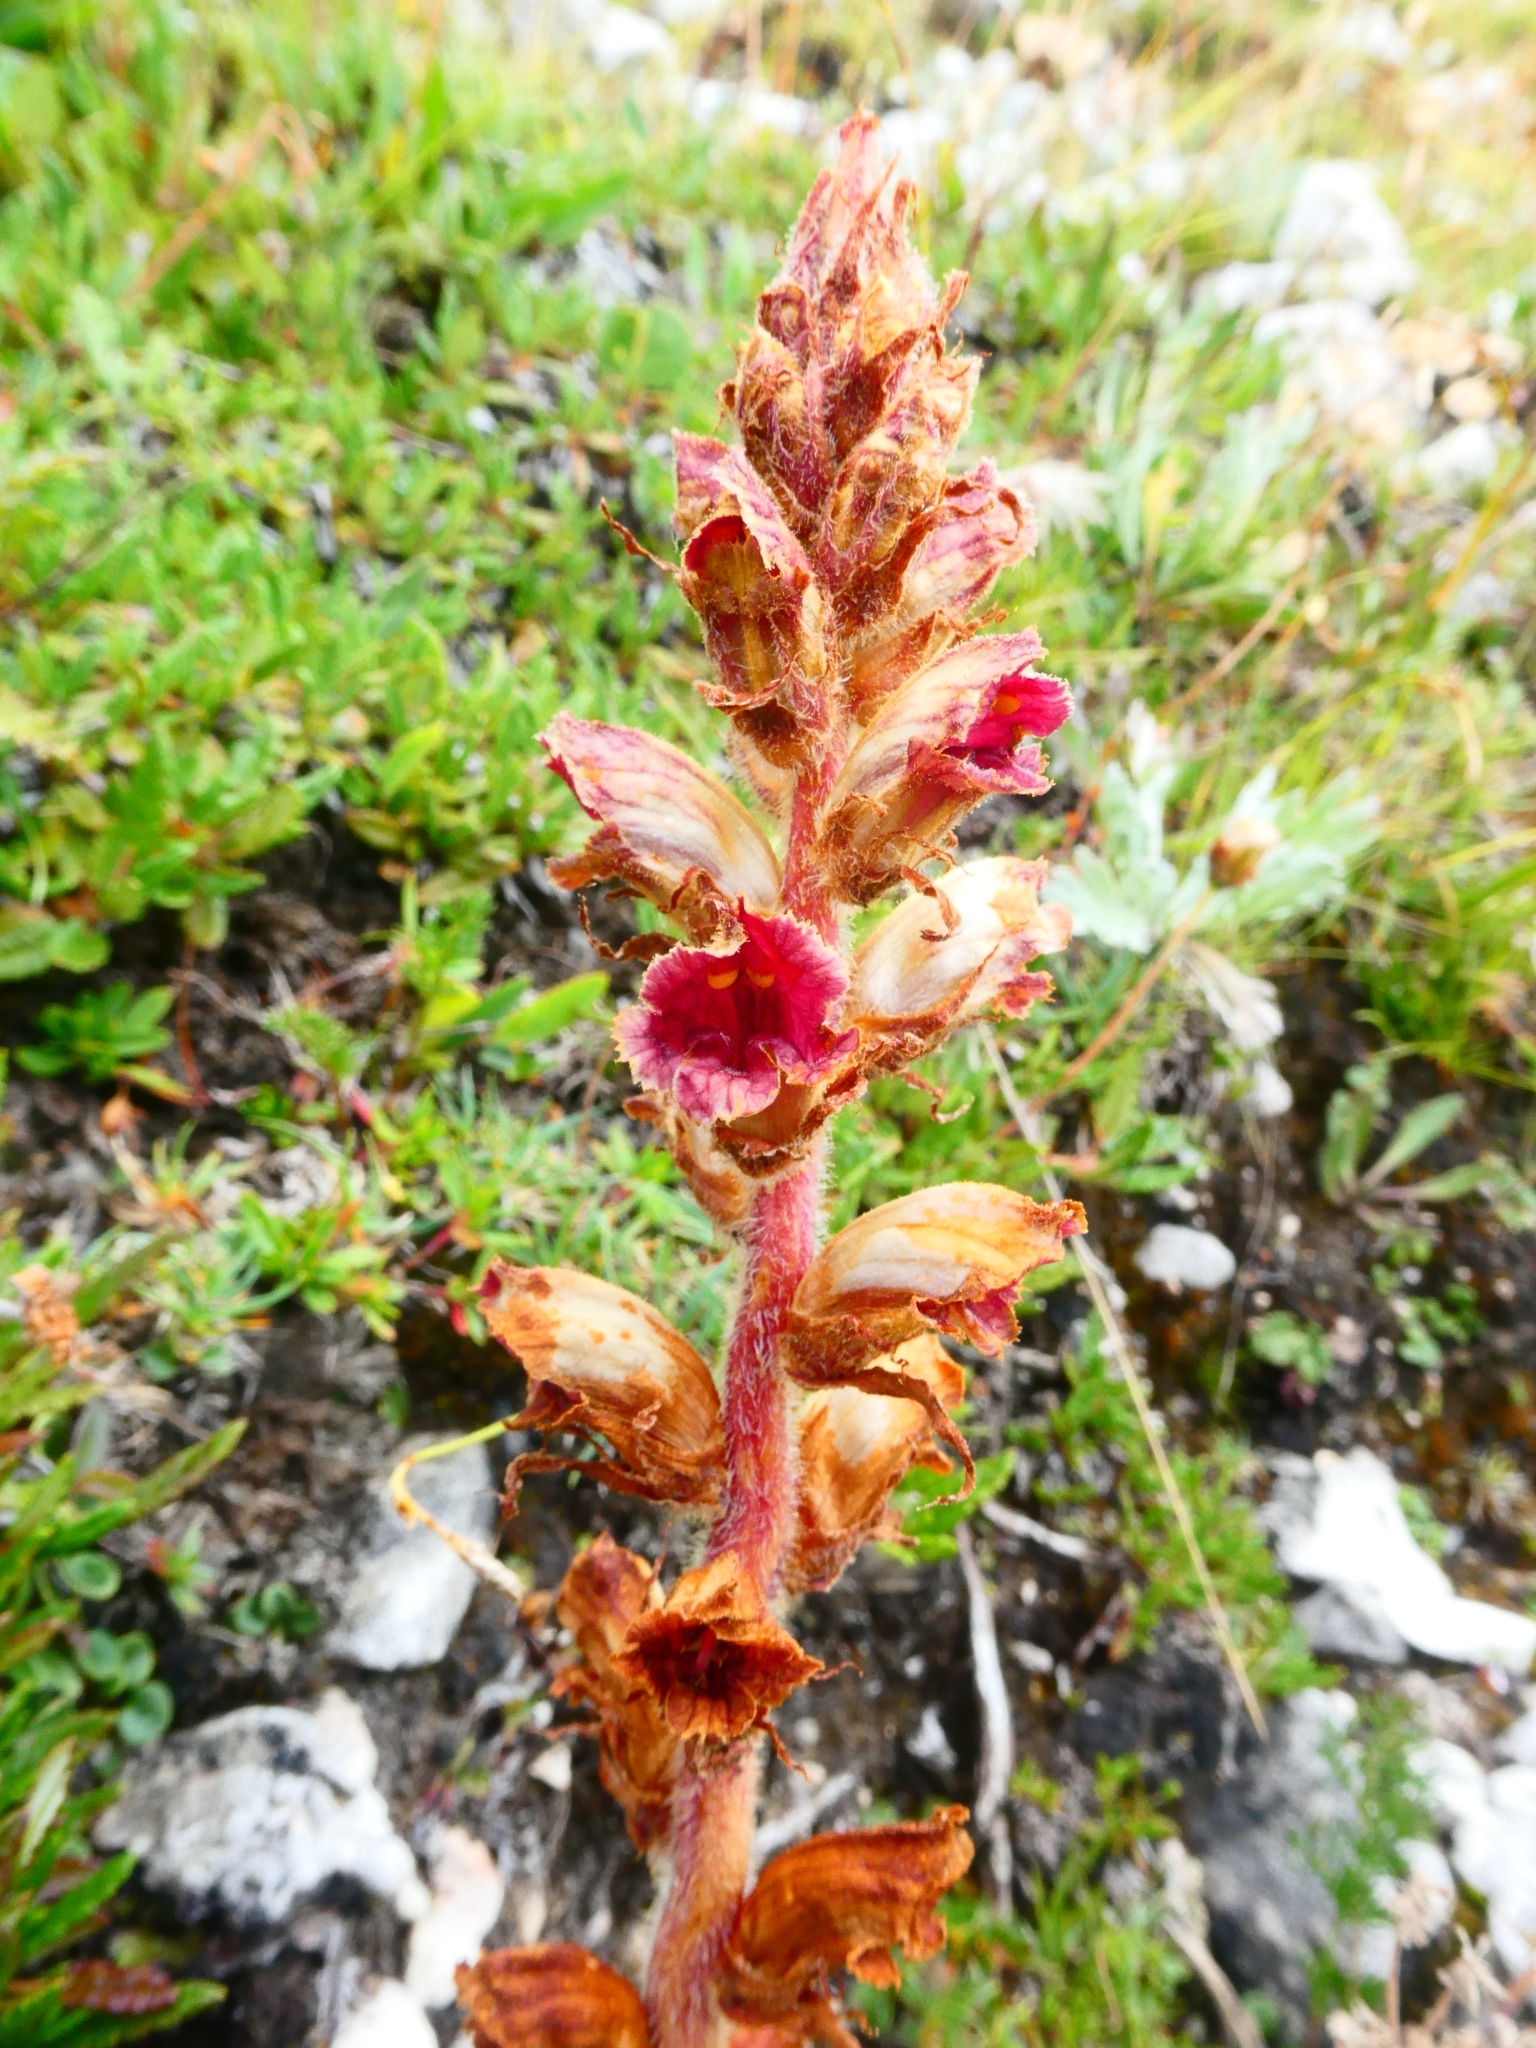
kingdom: Plantae
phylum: Tracheophyta
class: Magnoliopsida
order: Lamiales
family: Orobanchaceae
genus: Orobanche
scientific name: Orobanche gracilis
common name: Slender broomrape
